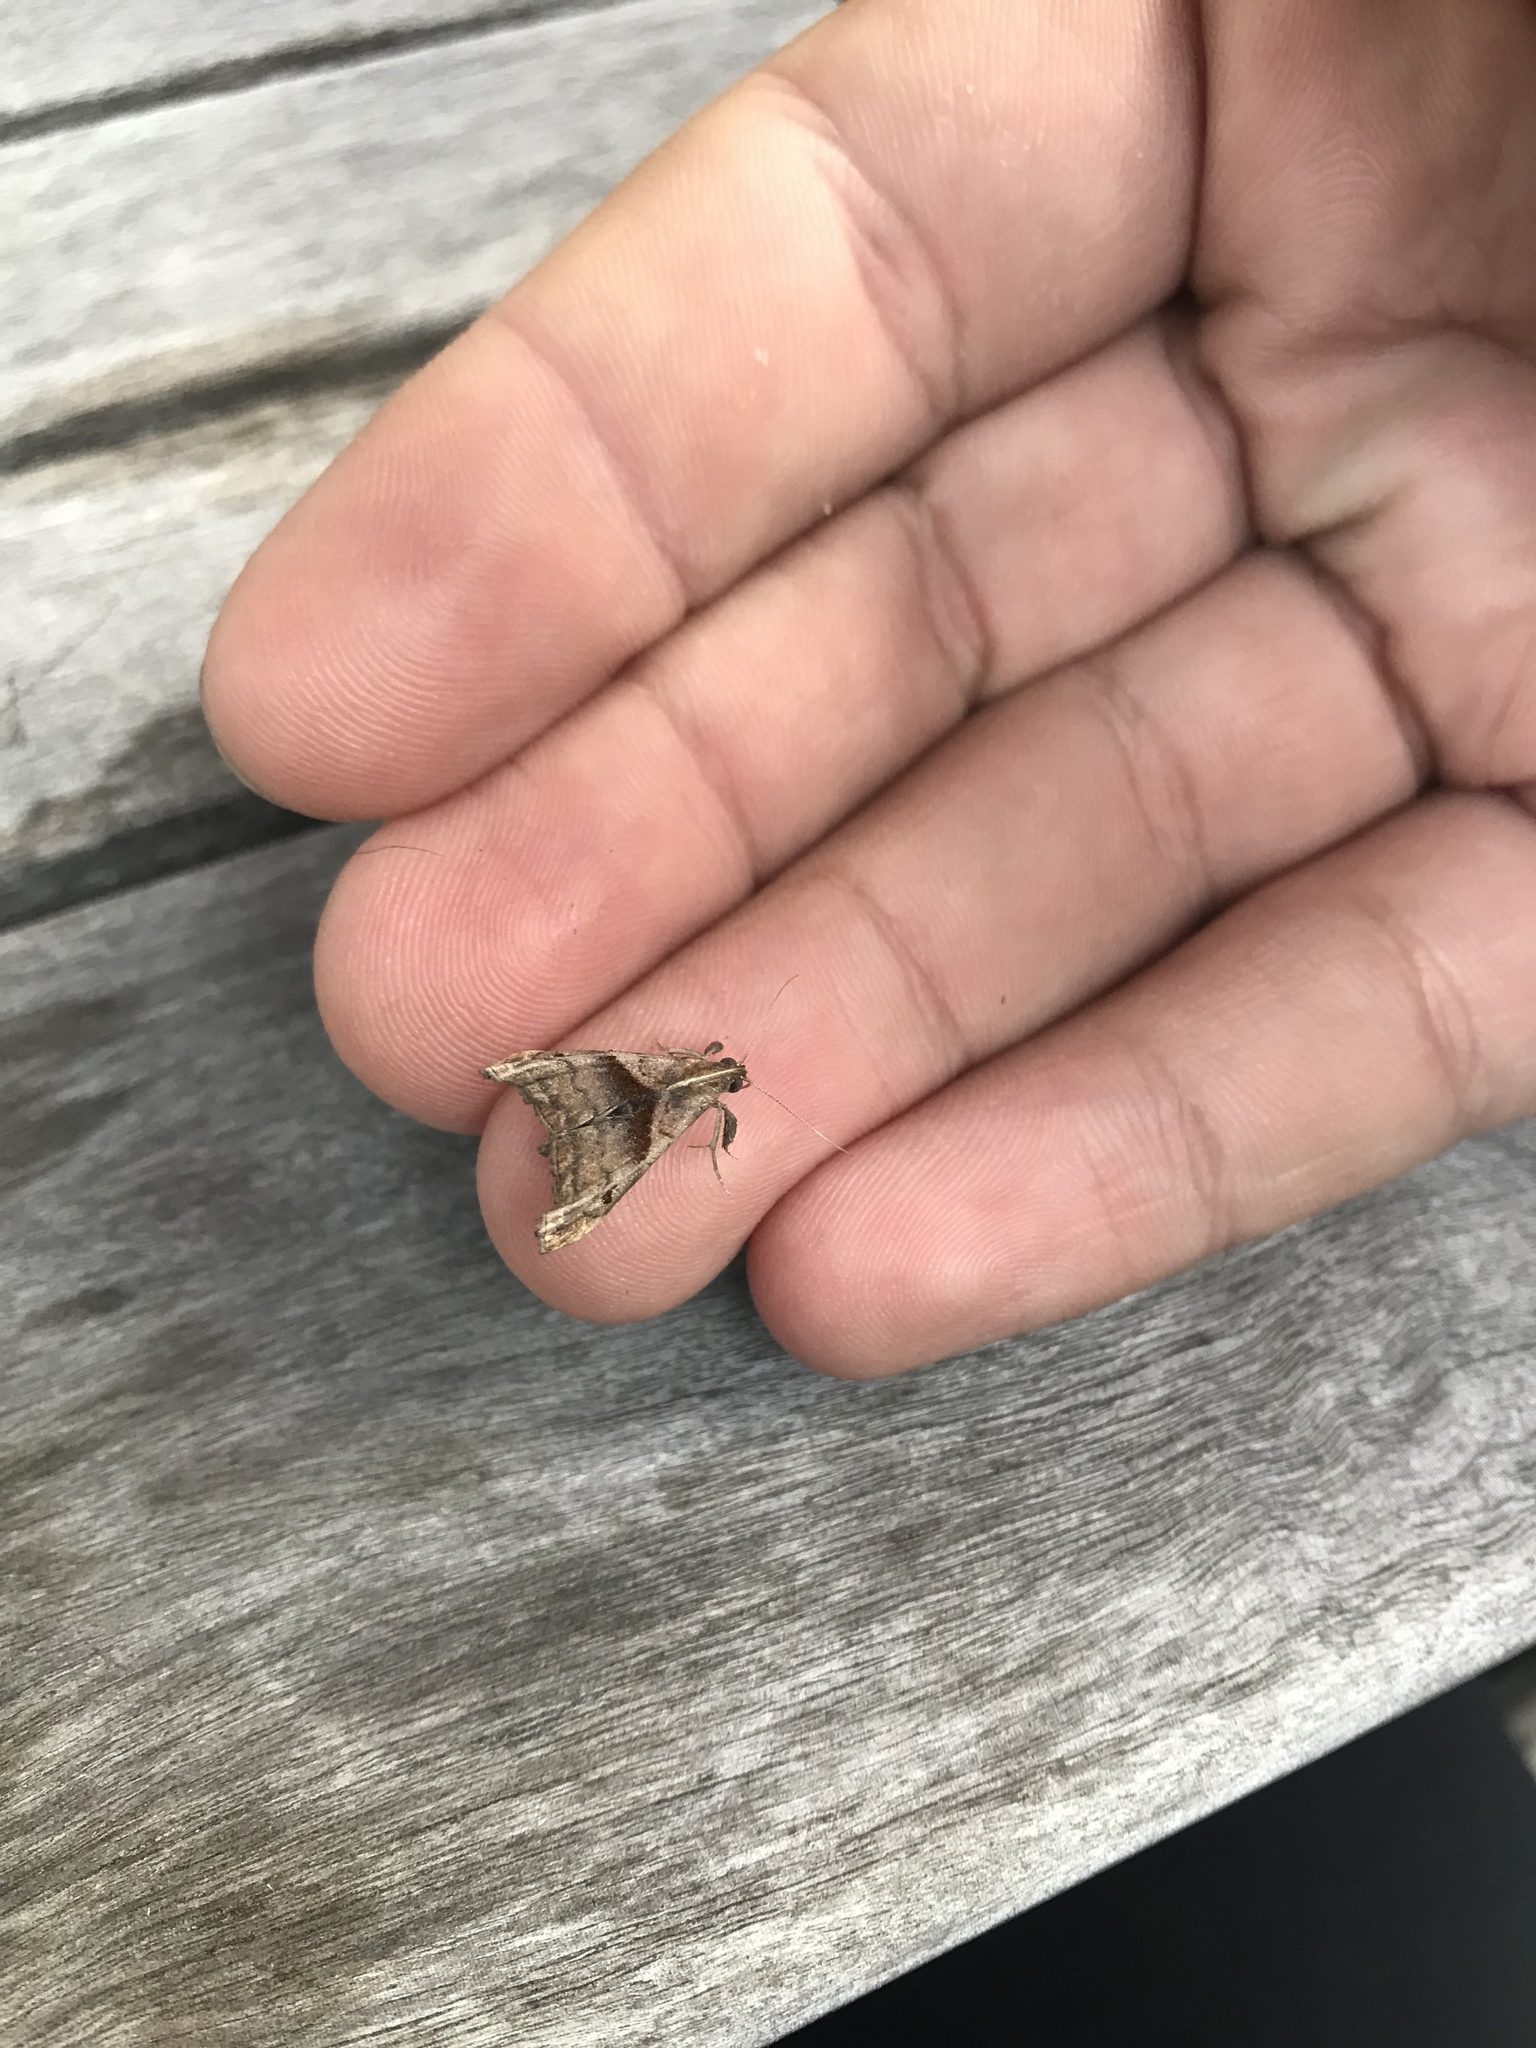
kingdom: Animalia
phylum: Arthropoda
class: Insecta
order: Lepidoptera
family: Erebidae
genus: Palthis
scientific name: Palthis angulalis
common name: Dark-spotted palthis moth
